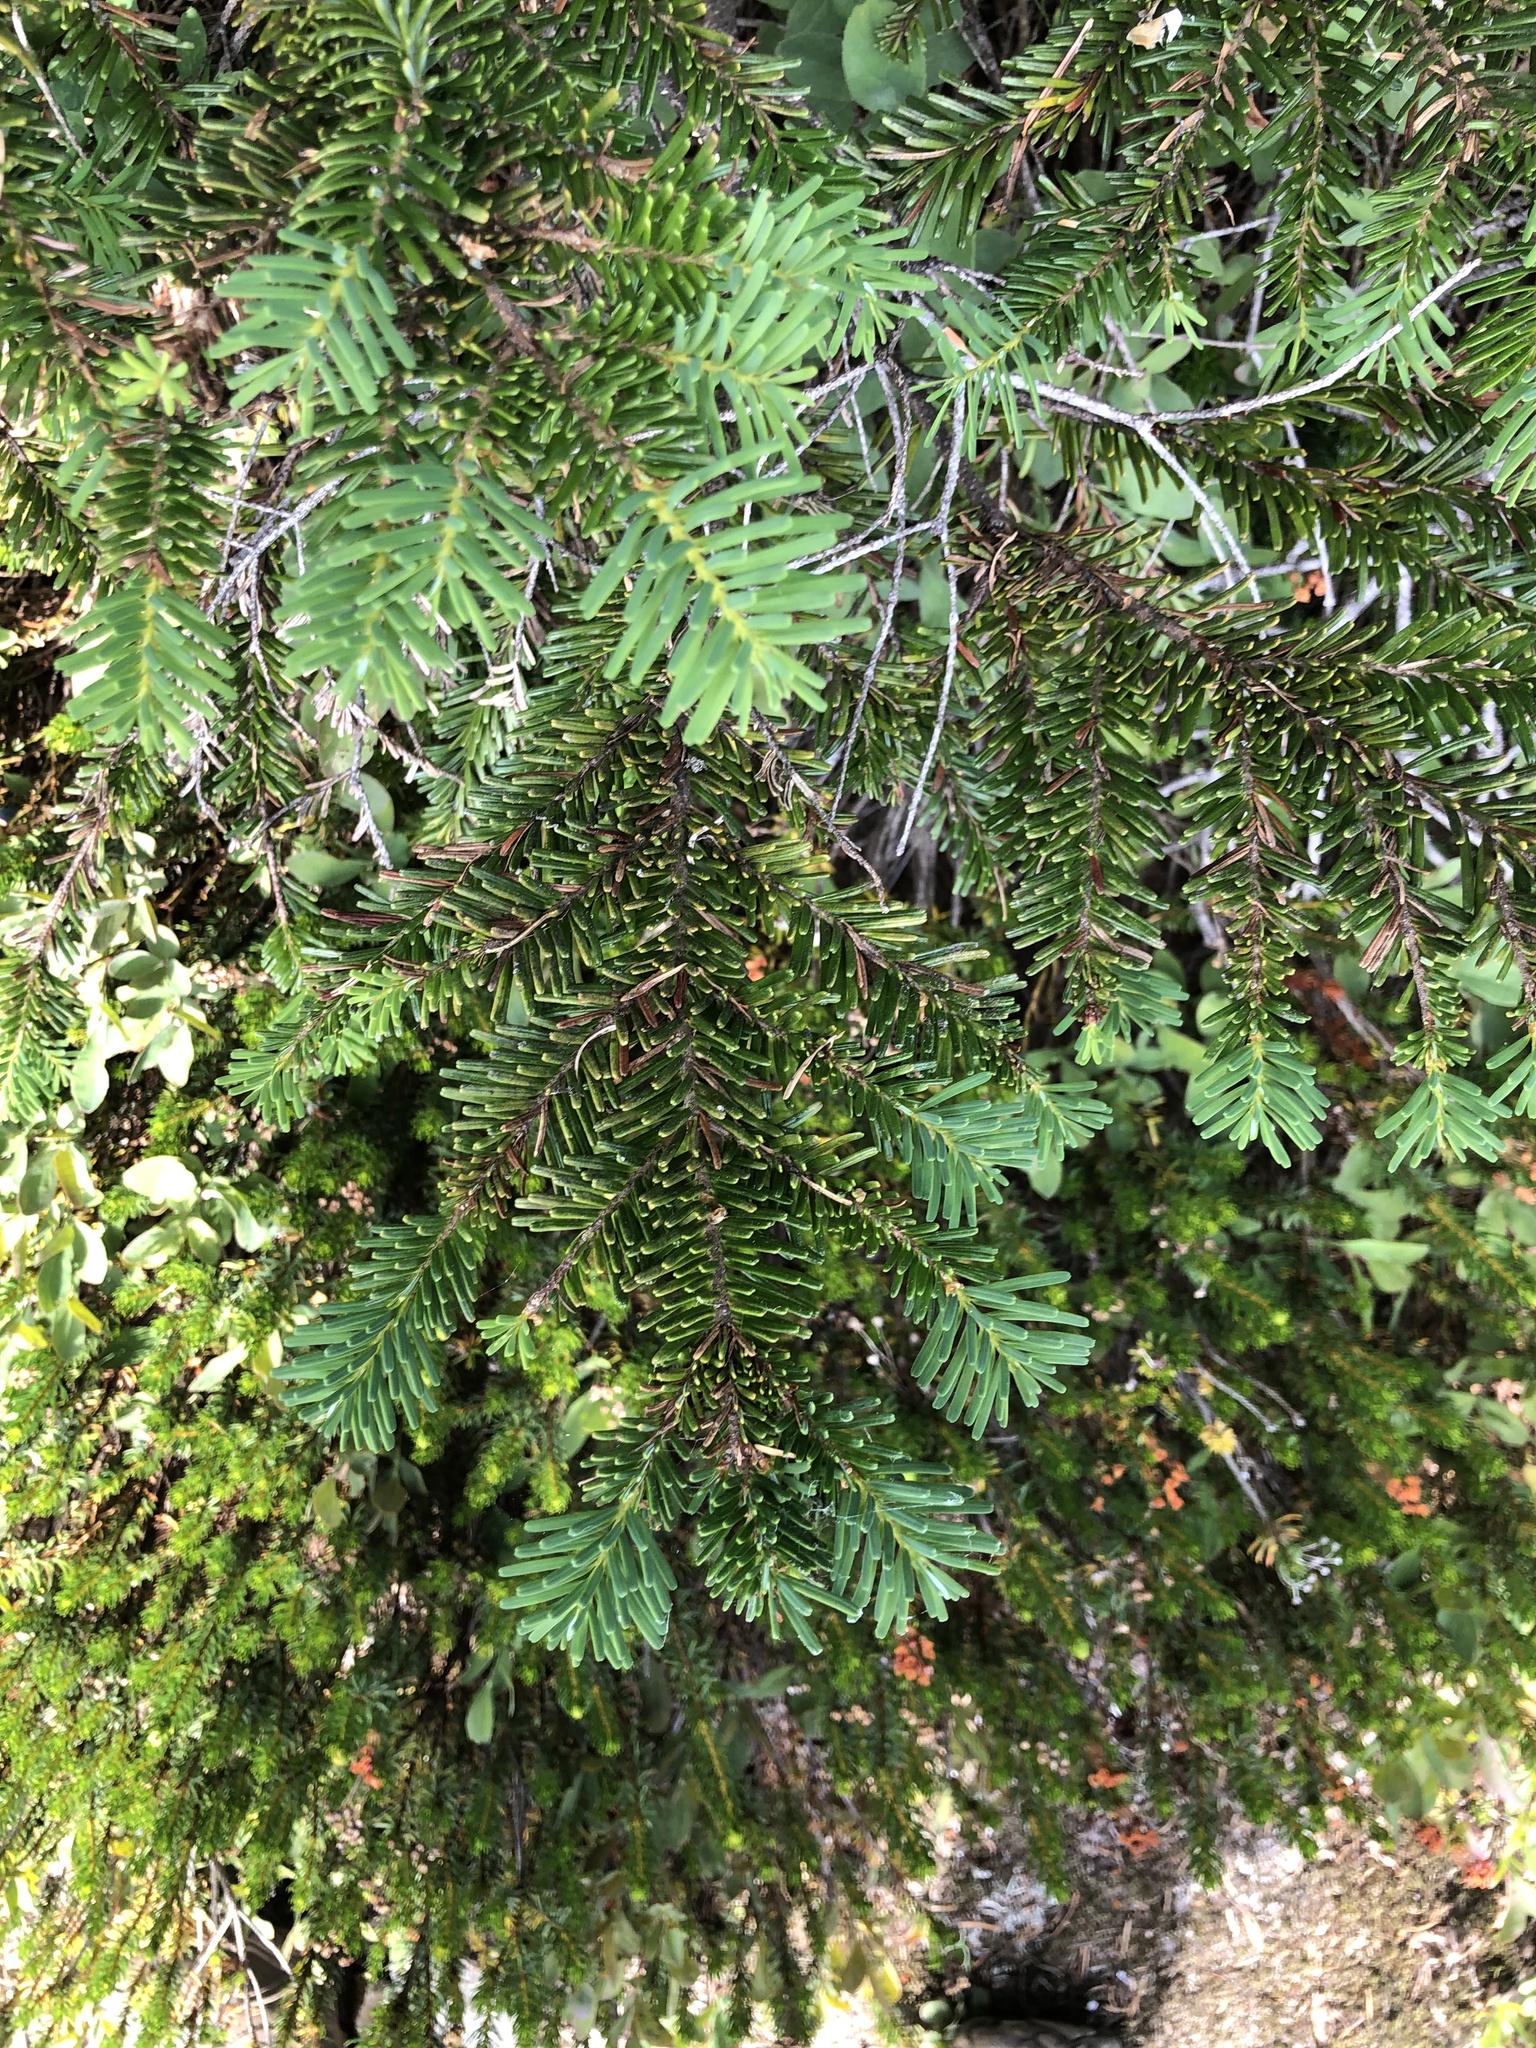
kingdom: Plantae
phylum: Tracheophyta
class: Pinopsida
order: Pinales
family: Pinaceae
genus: Abies
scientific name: Abies amabilis
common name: Pacific silver fir
